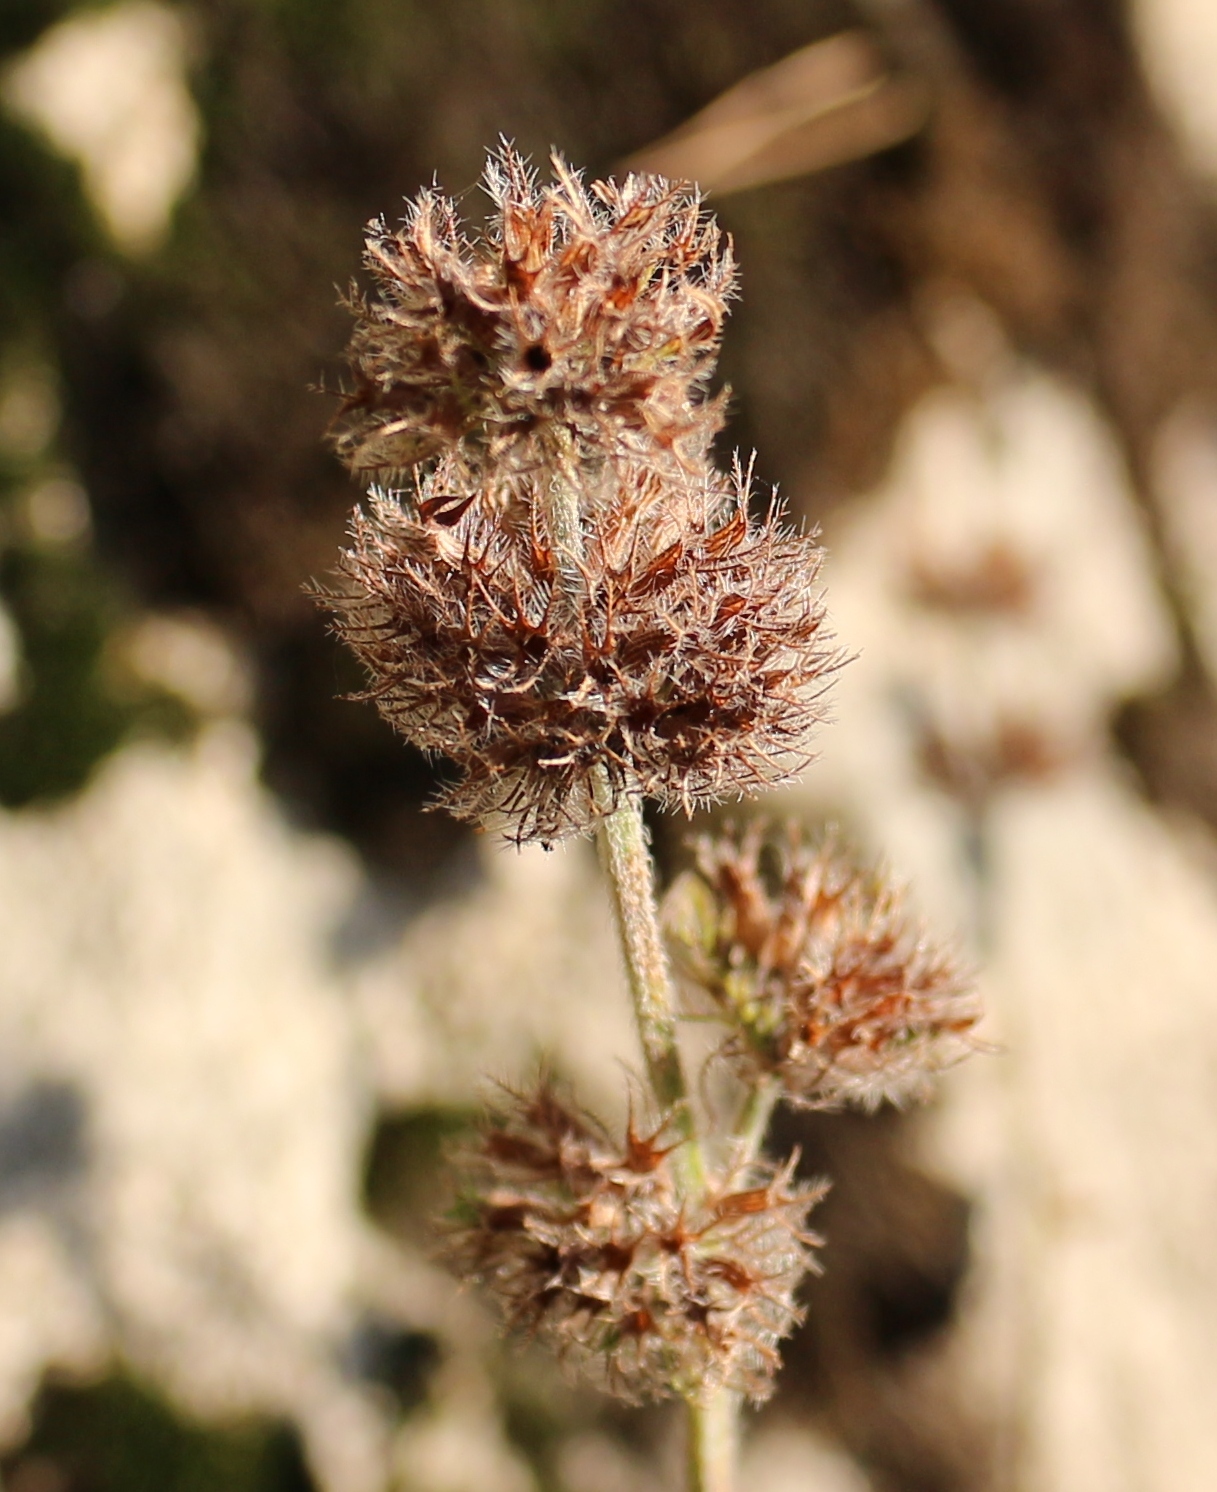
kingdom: Plantae
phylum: Tracheophyta
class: Magnoliopsida
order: Lamiales
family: Lamiaceae
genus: Clinopodium
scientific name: Clinopodium caucasicum
